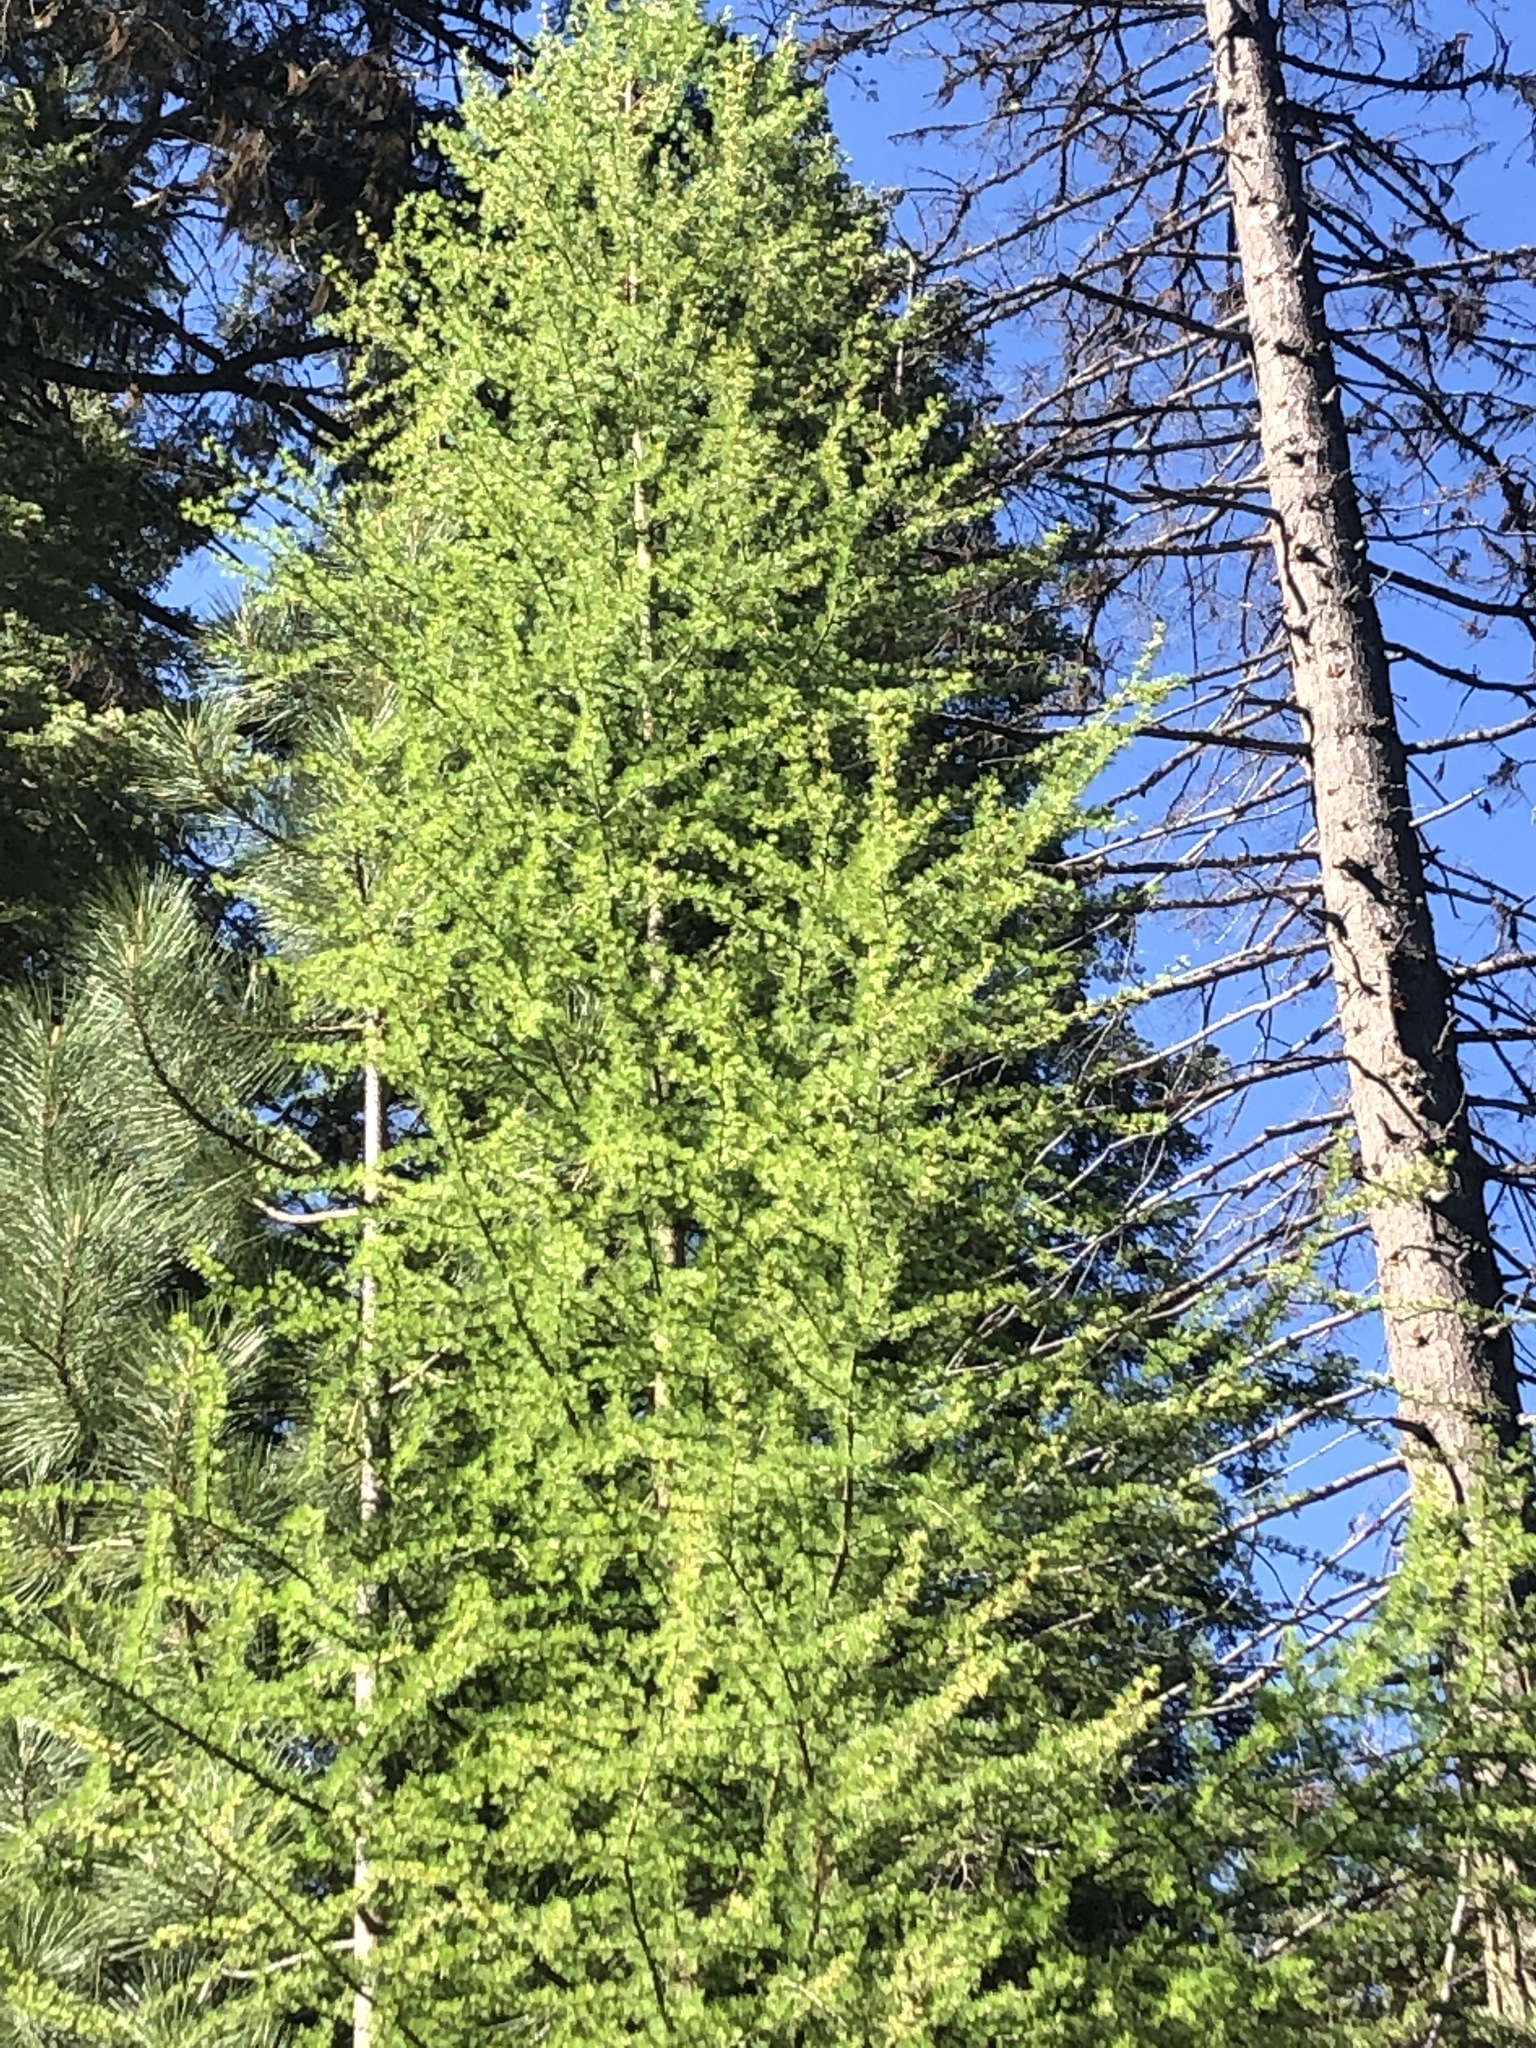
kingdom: Plantae
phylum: Tracheophyta
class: Pinopsida
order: Pinales
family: Pinaceae
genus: Larix
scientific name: Larix occidentalis
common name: Western larch
